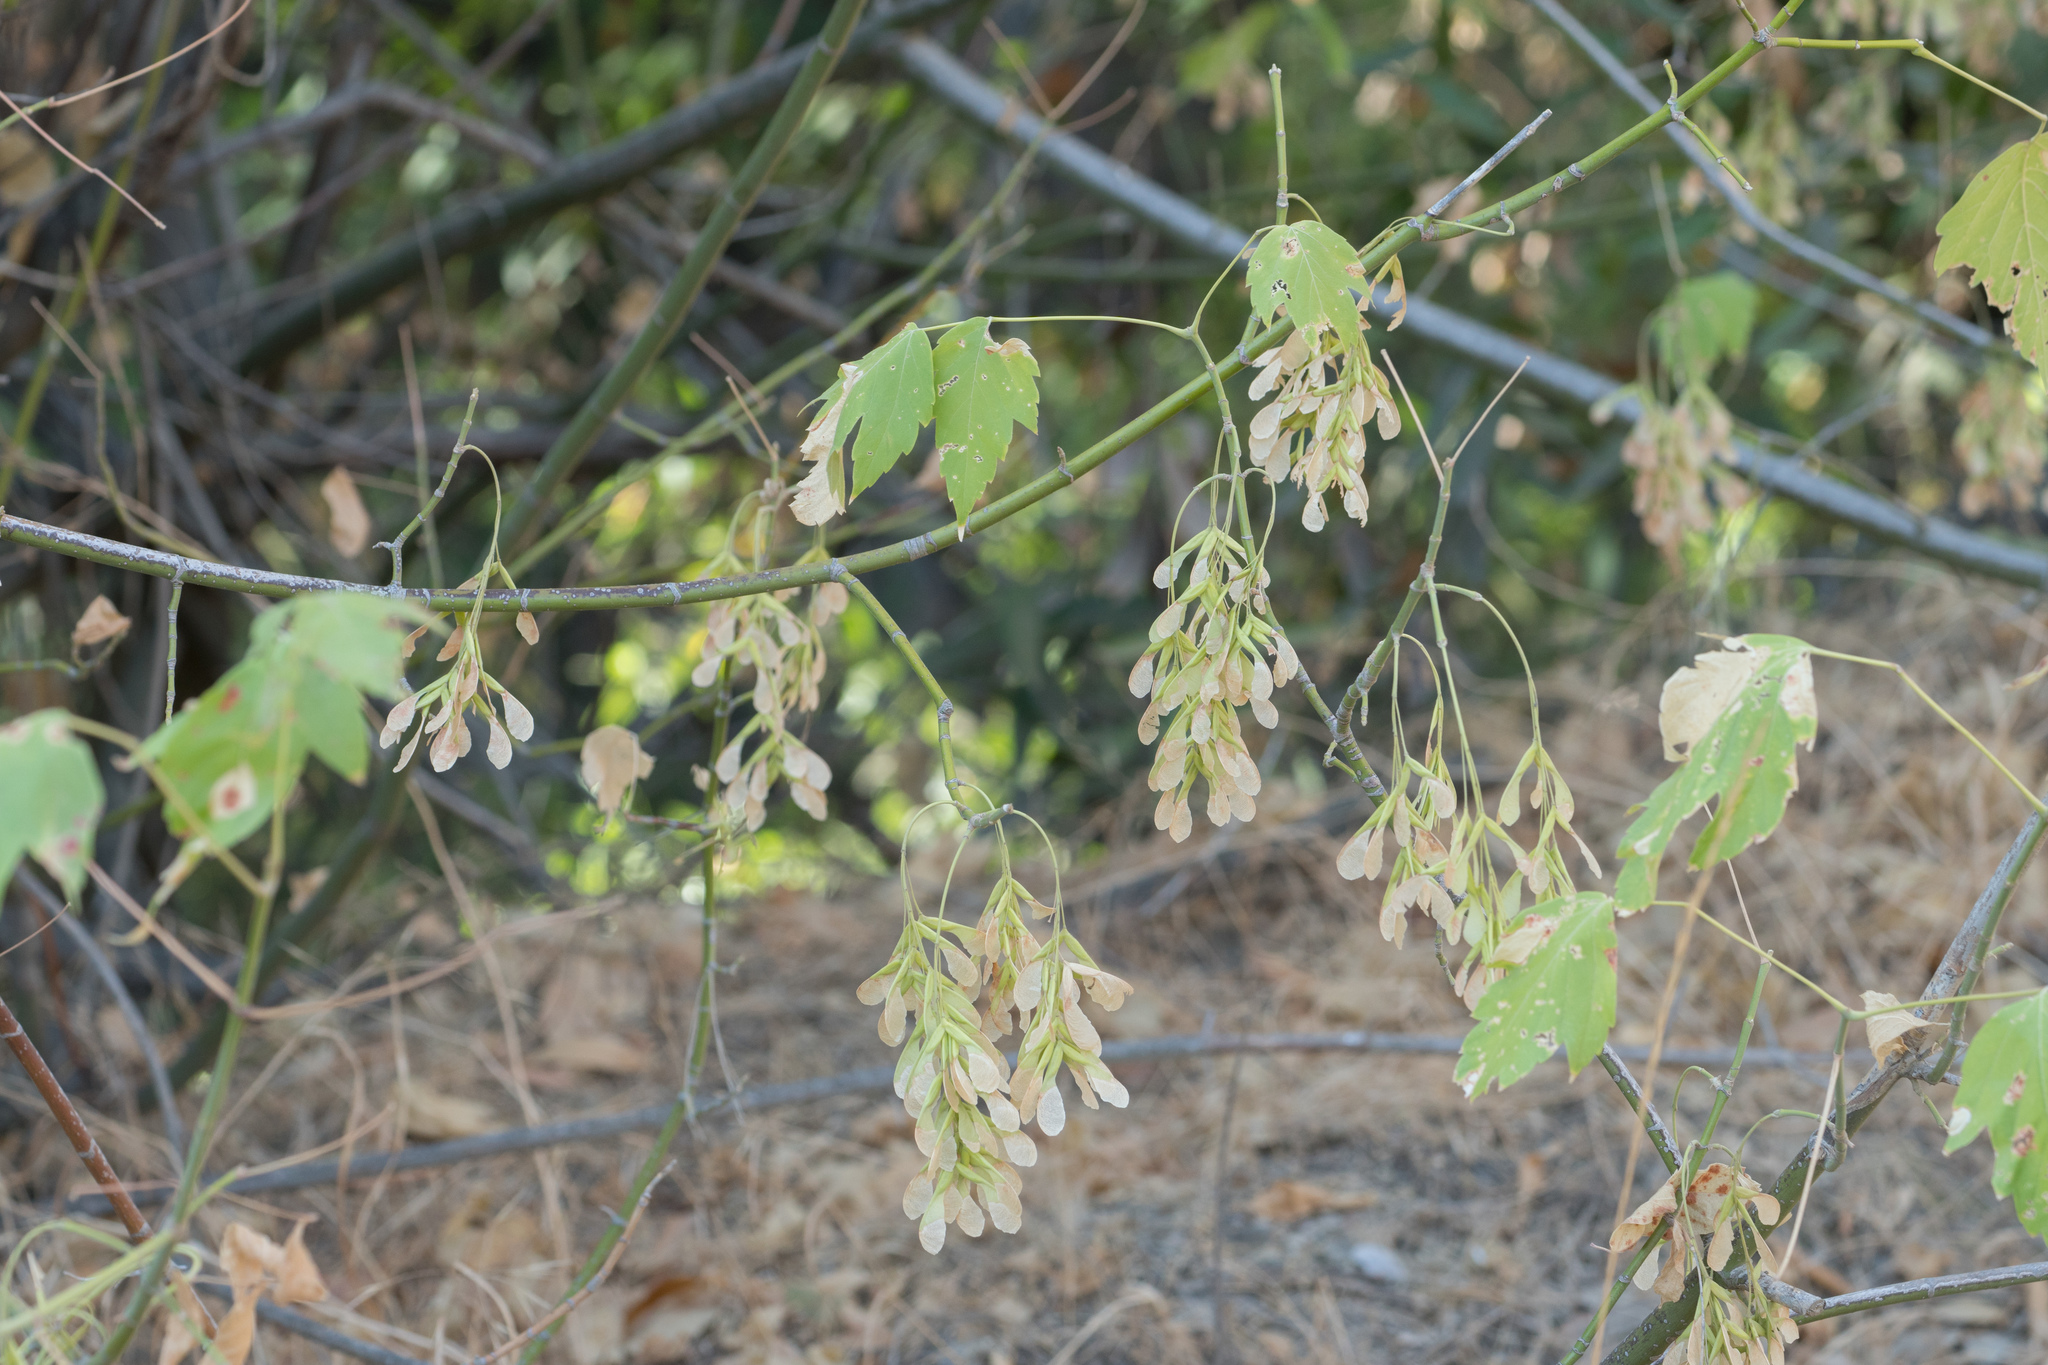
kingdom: Plantae
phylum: Tracheophyta
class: Magnoliopsida
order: Sapindales
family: Sapindaceae
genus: Acer
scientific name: Acer negundo
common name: Ashleaf maple
